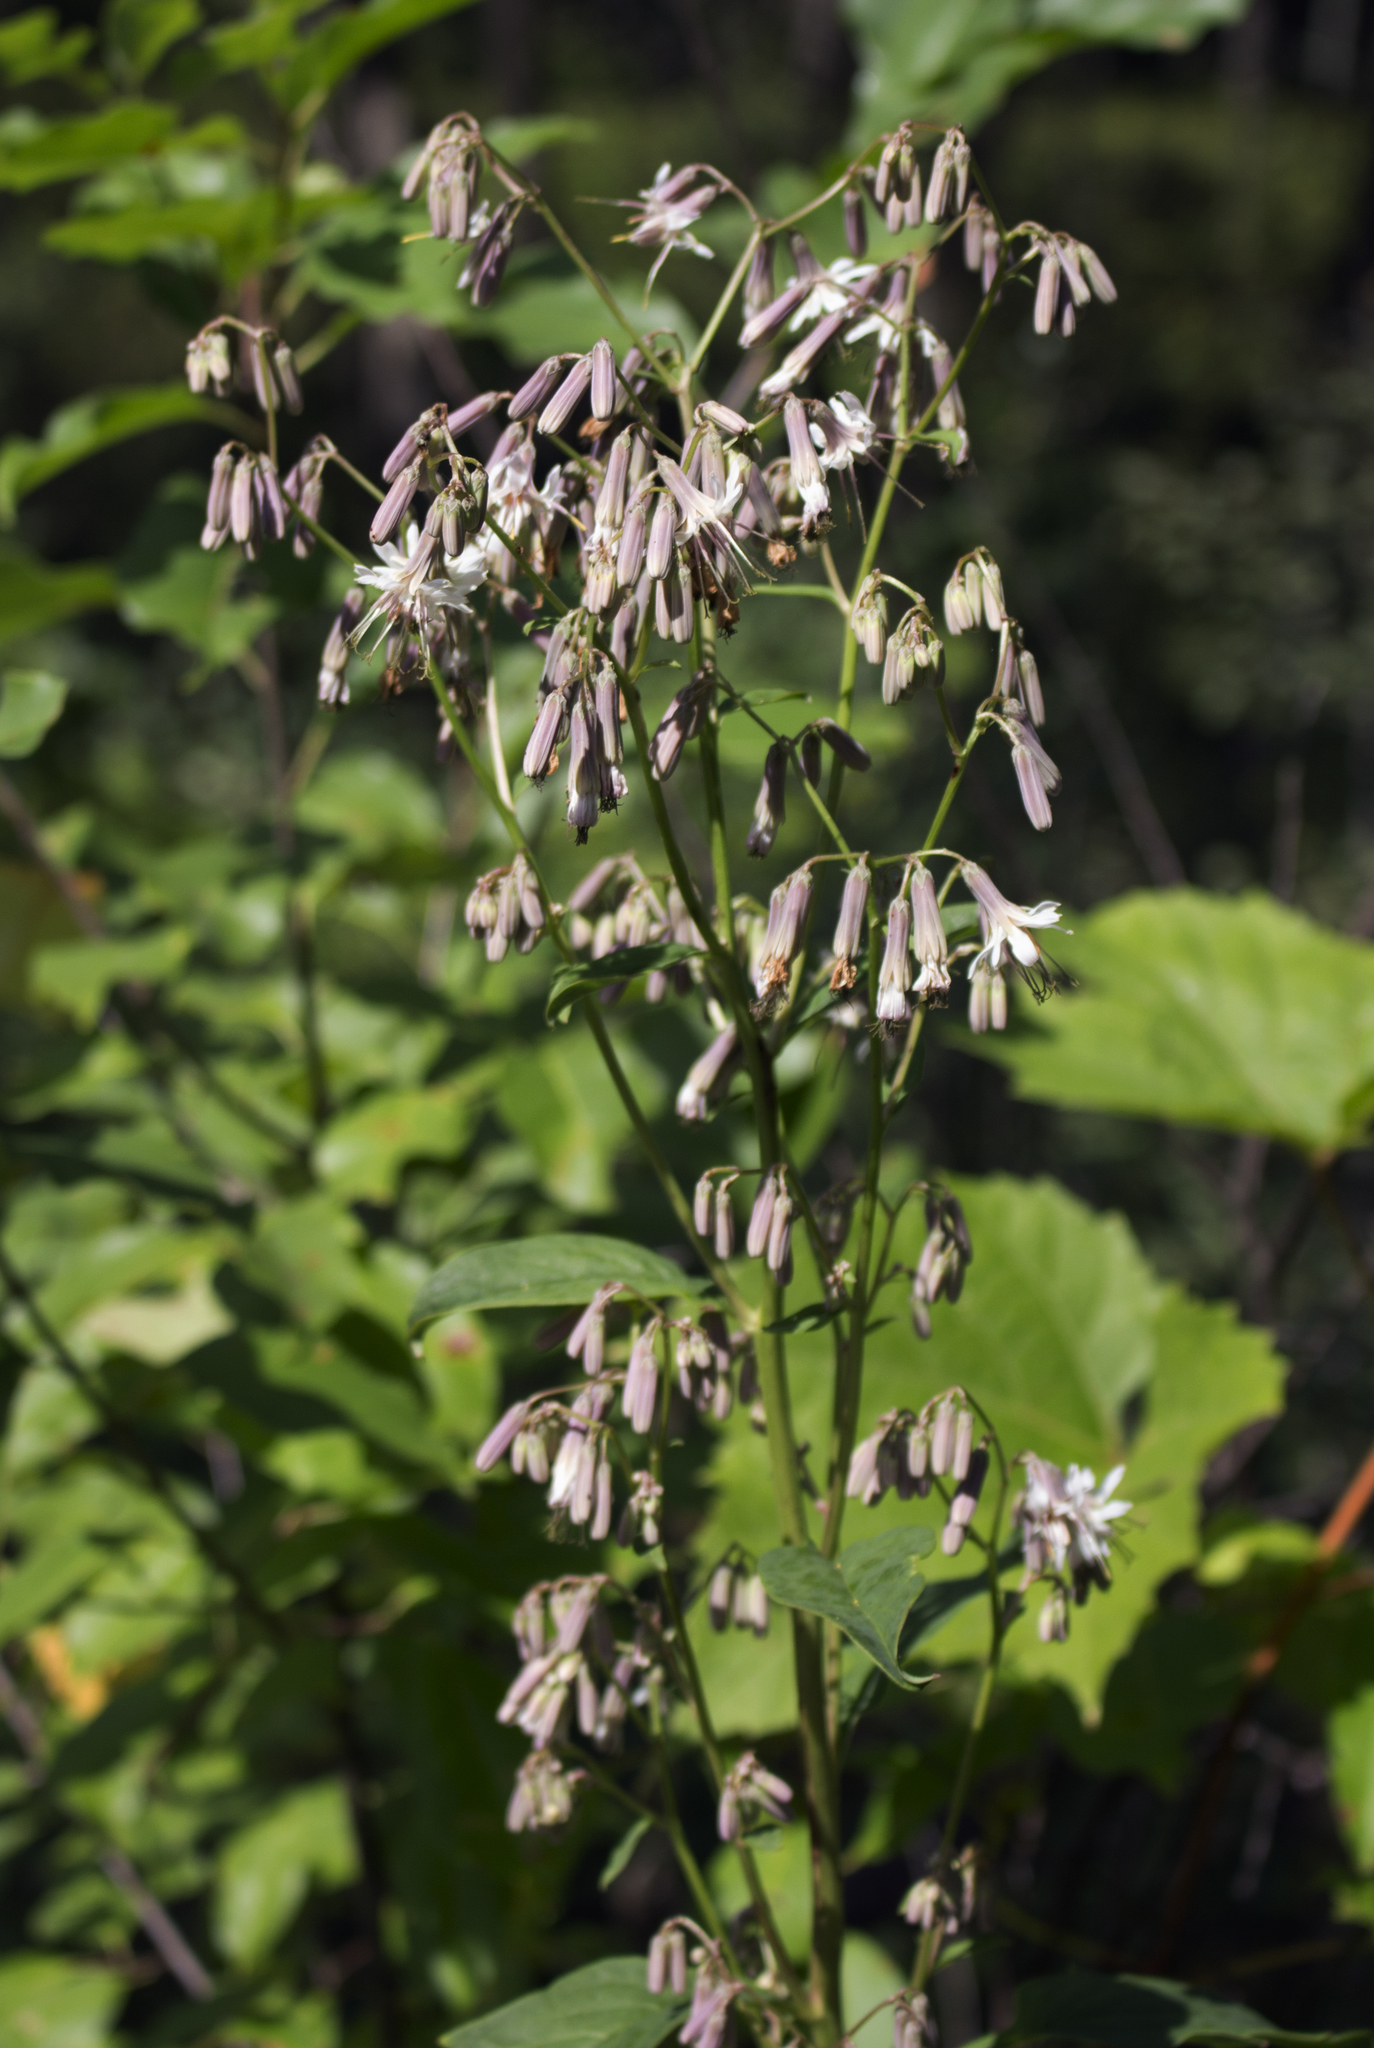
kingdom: Plantae
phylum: Tracheophyta
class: Magnoliopsida
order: Asterales
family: Asteraceae
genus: Nabalus
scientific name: Nabalus albus
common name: White rattlesnakeroot
